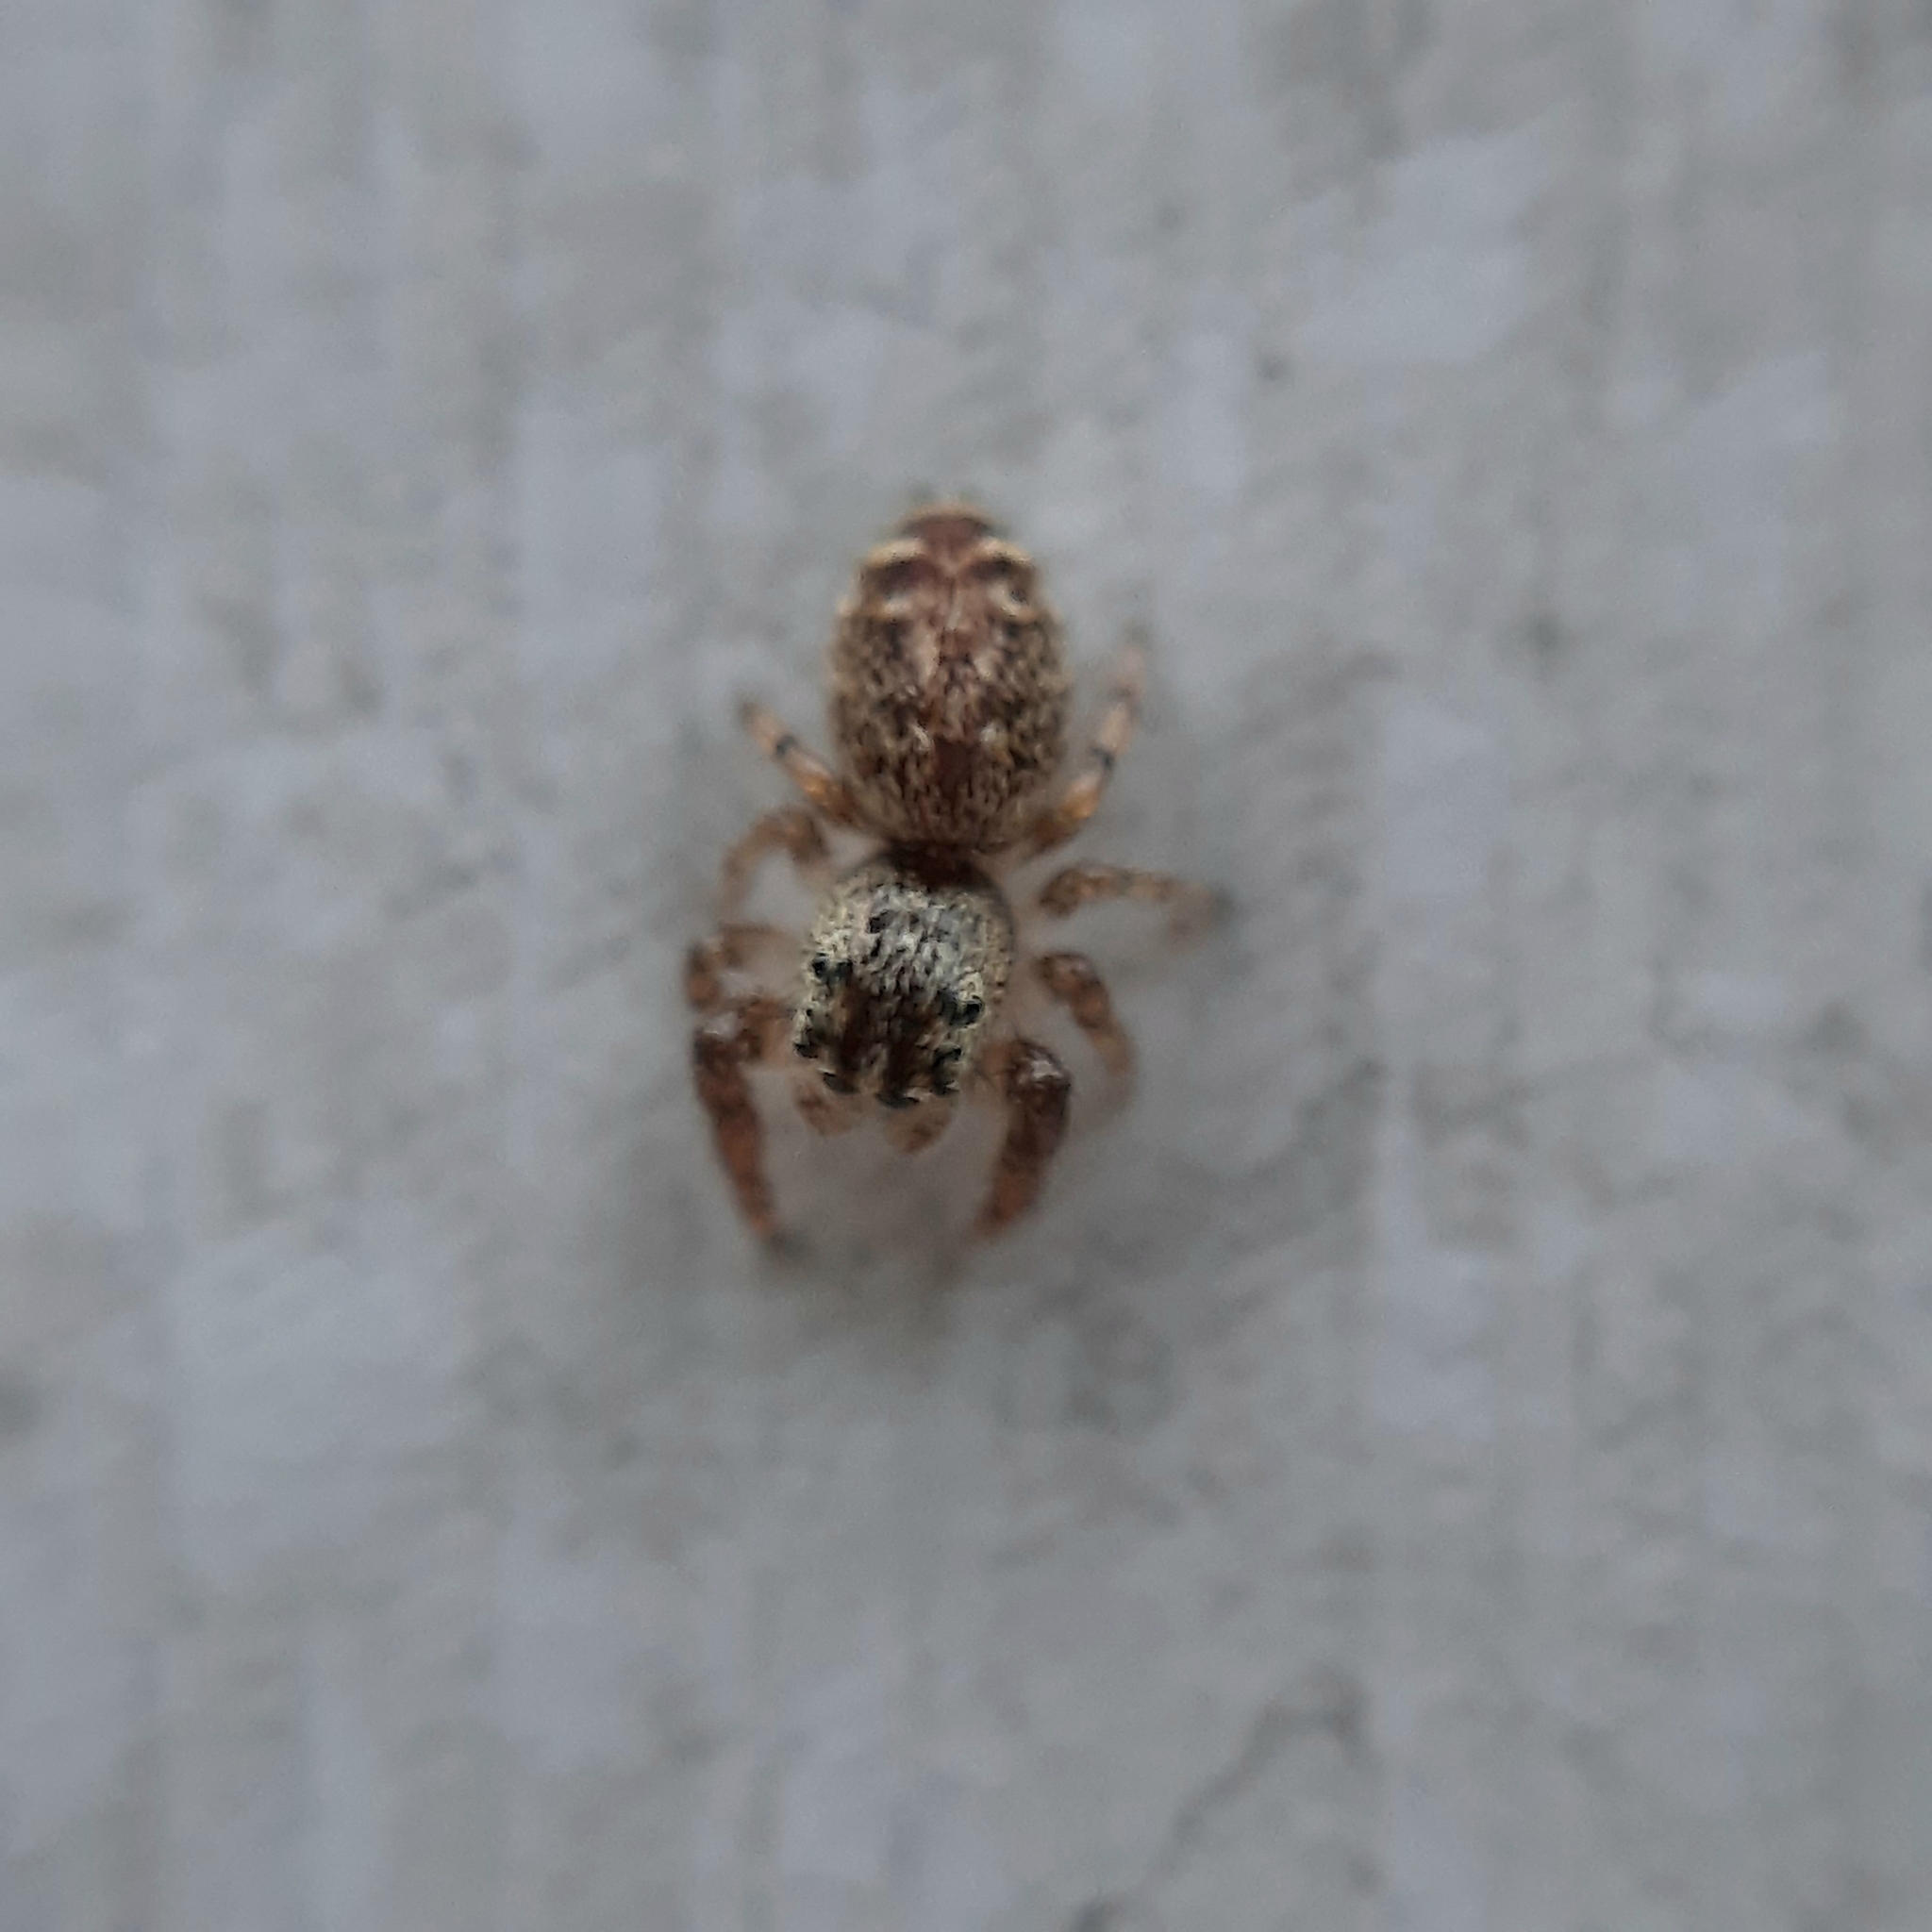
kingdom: Animalia
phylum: Arthropoda
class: Arachnida
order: Araneae
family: Salticidae
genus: Macaroeris
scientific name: Macaroeris
